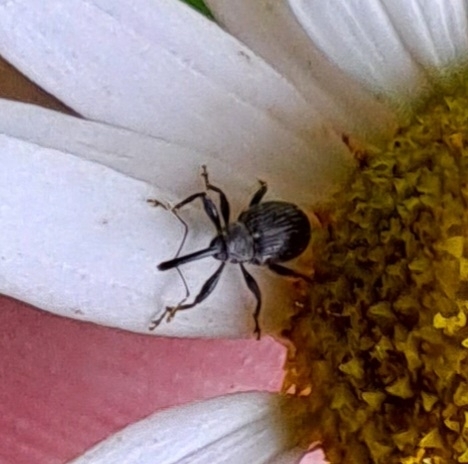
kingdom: Animalia
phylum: Arthropoda
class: Insecta
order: Coleoptera
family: Curculionidae
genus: Anthonomus
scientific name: Anthonomus rubi
